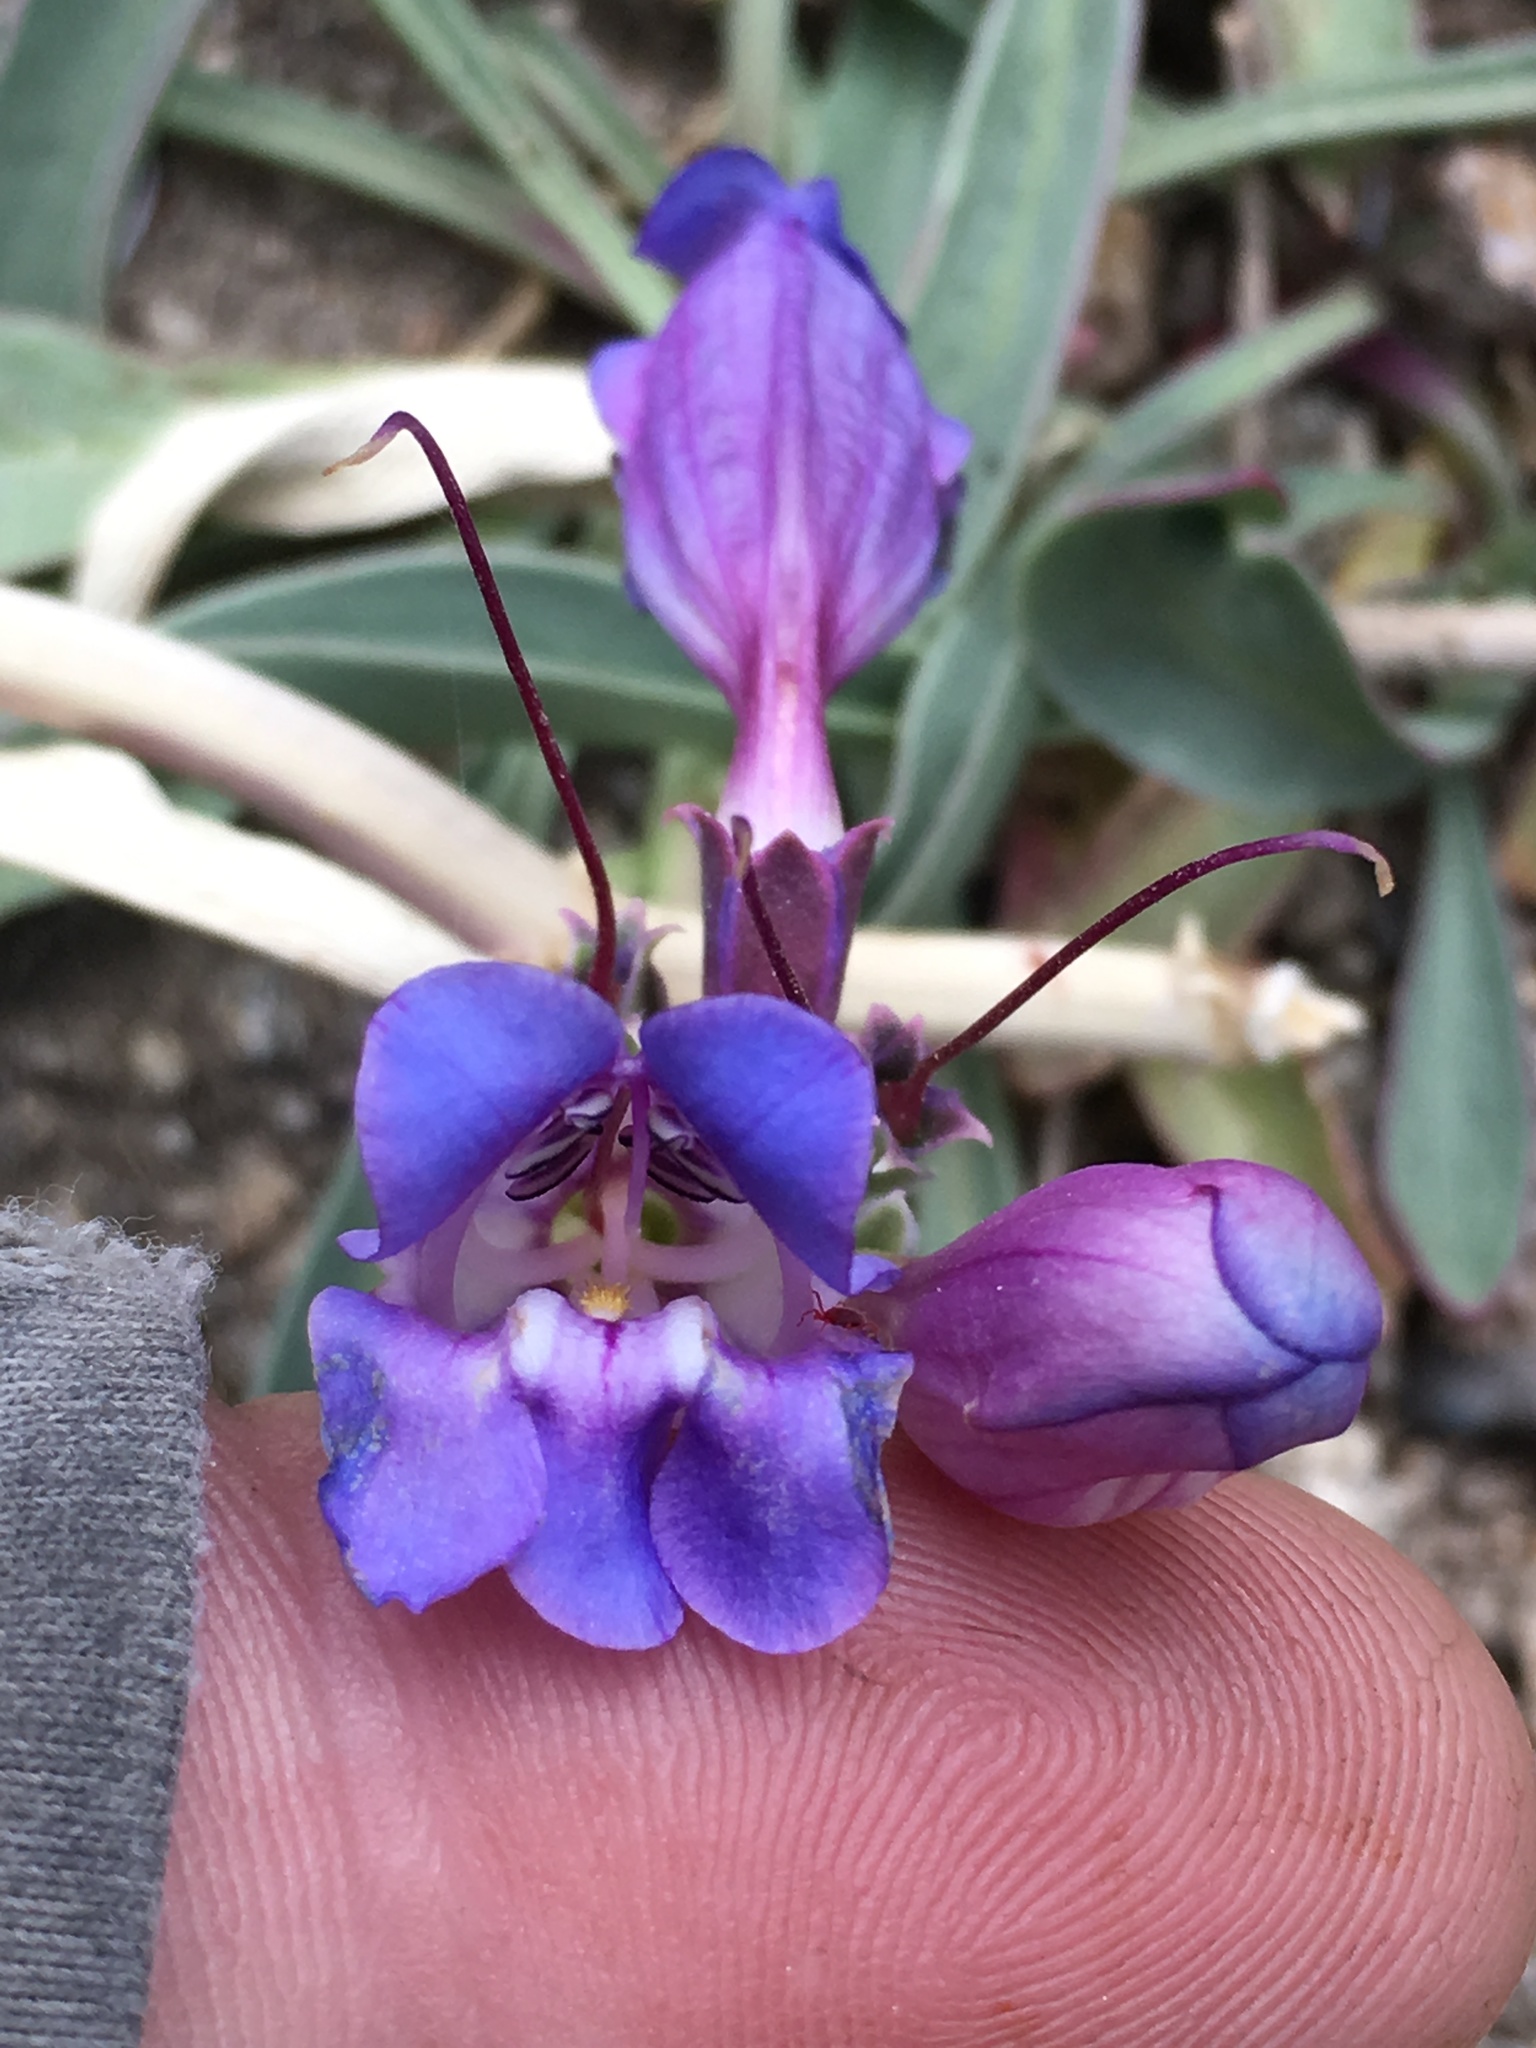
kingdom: Plantae
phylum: Tracheophyta
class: Magnoliopsida
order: Lamiales
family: Plantaginaceae
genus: Penstemon
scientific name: Penstemon speciosus
